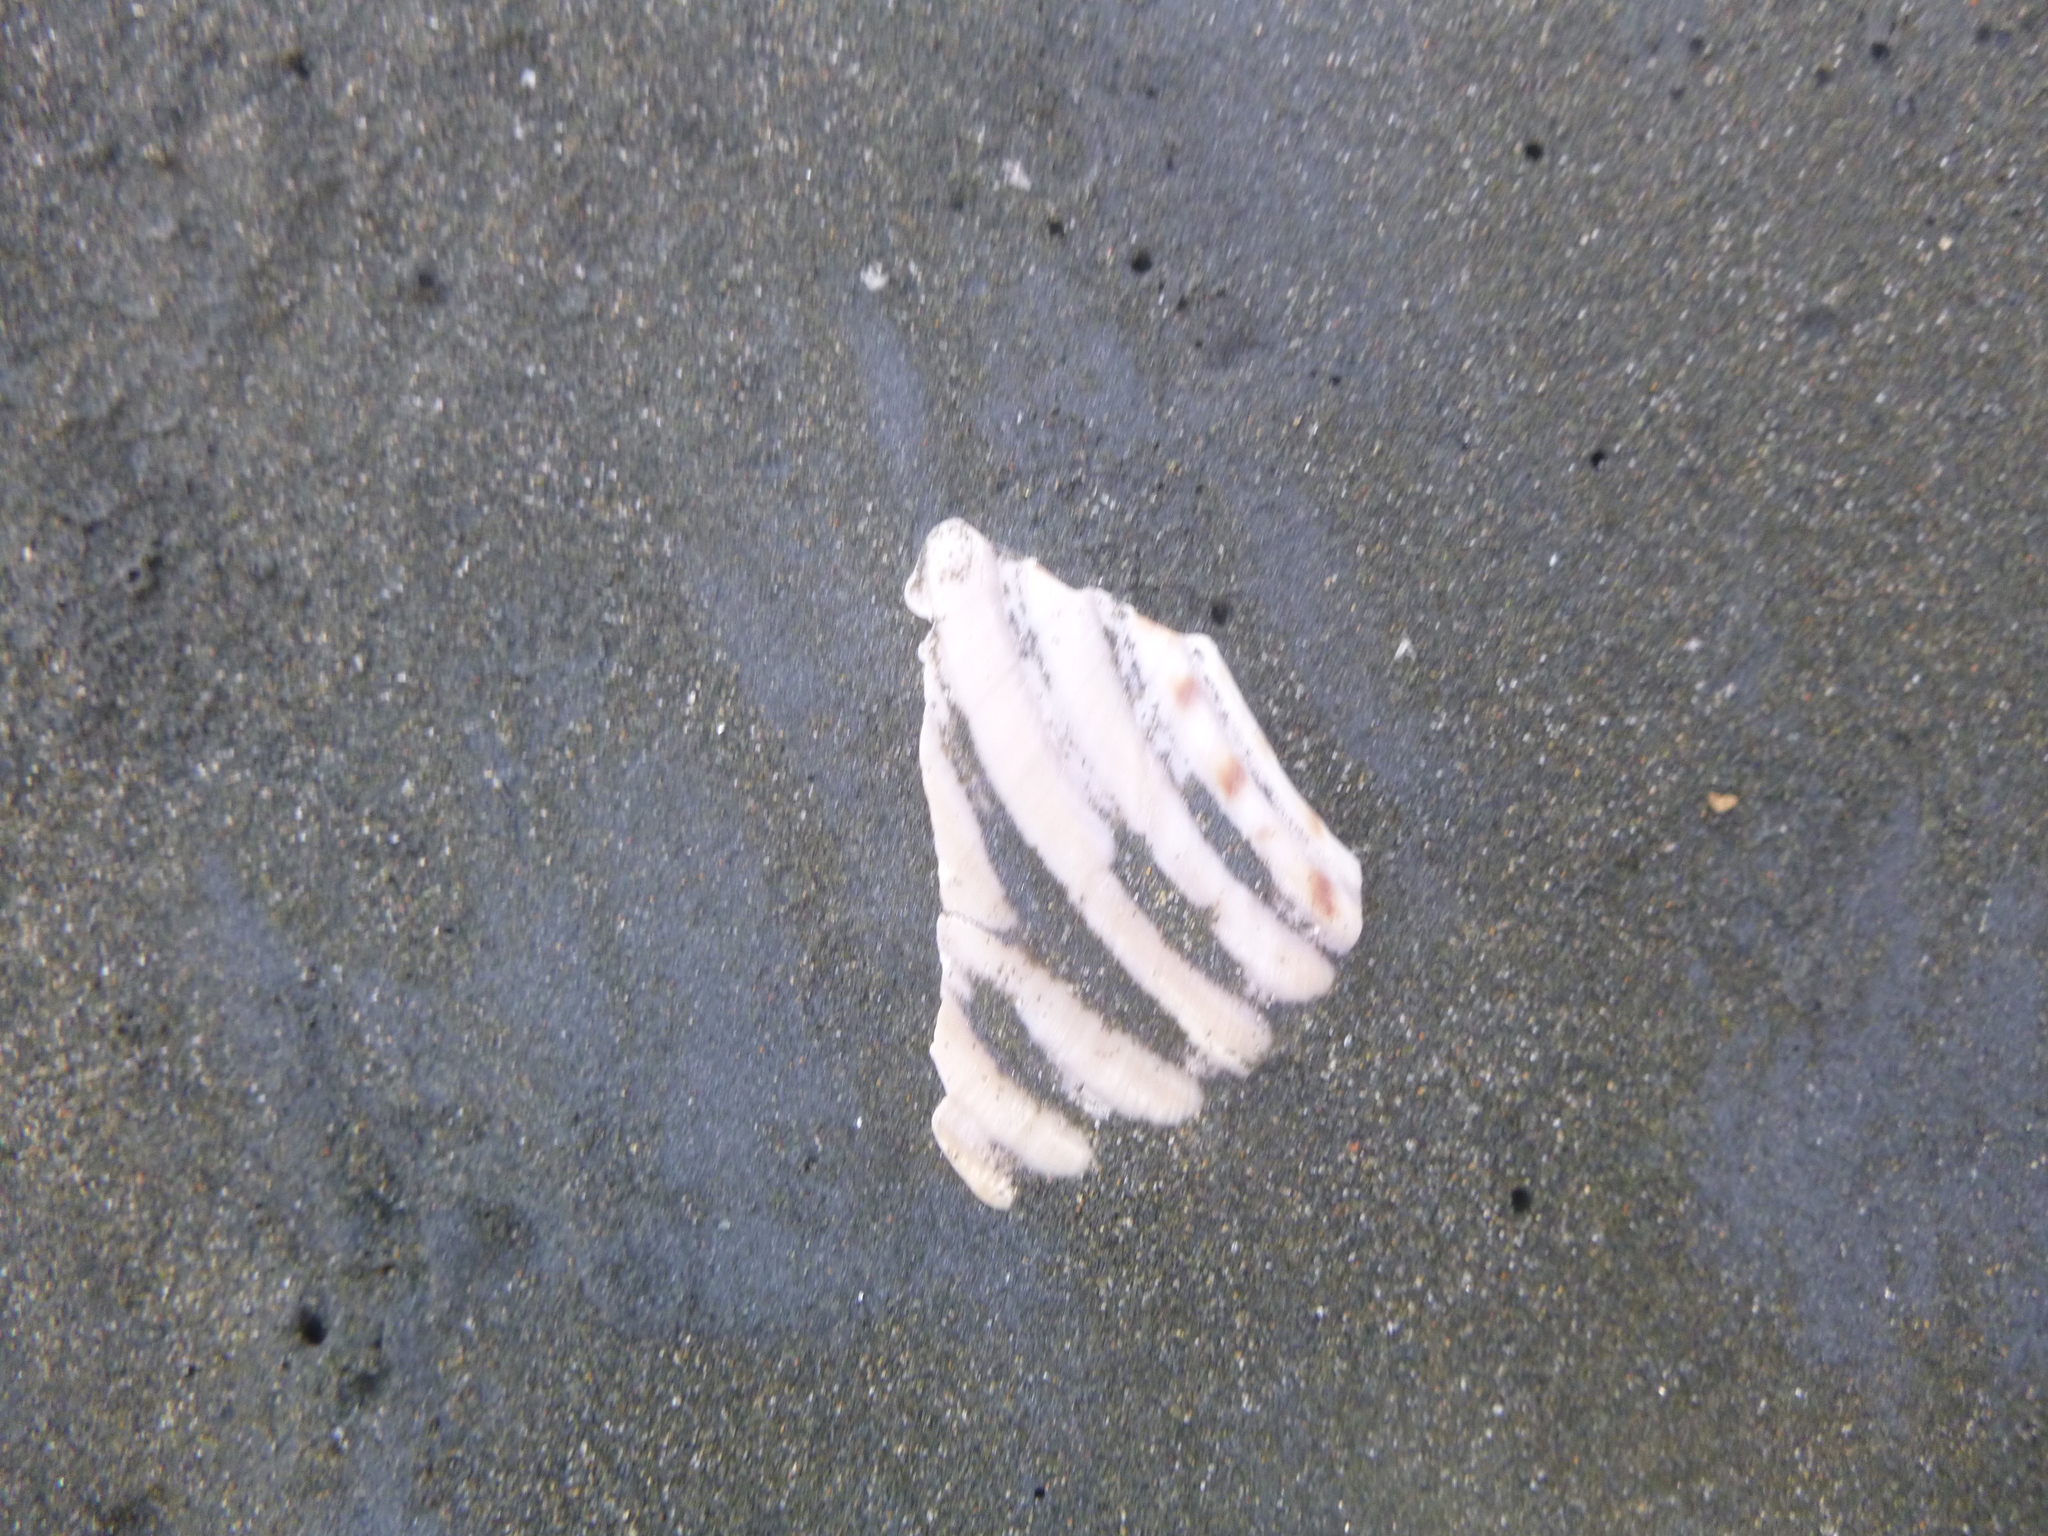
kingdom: Animalia
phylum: Mollusca
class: Gastropoda
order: Littorinimorpha
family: Tonnidae
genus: Tonna
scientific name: Tonna tankervillii
